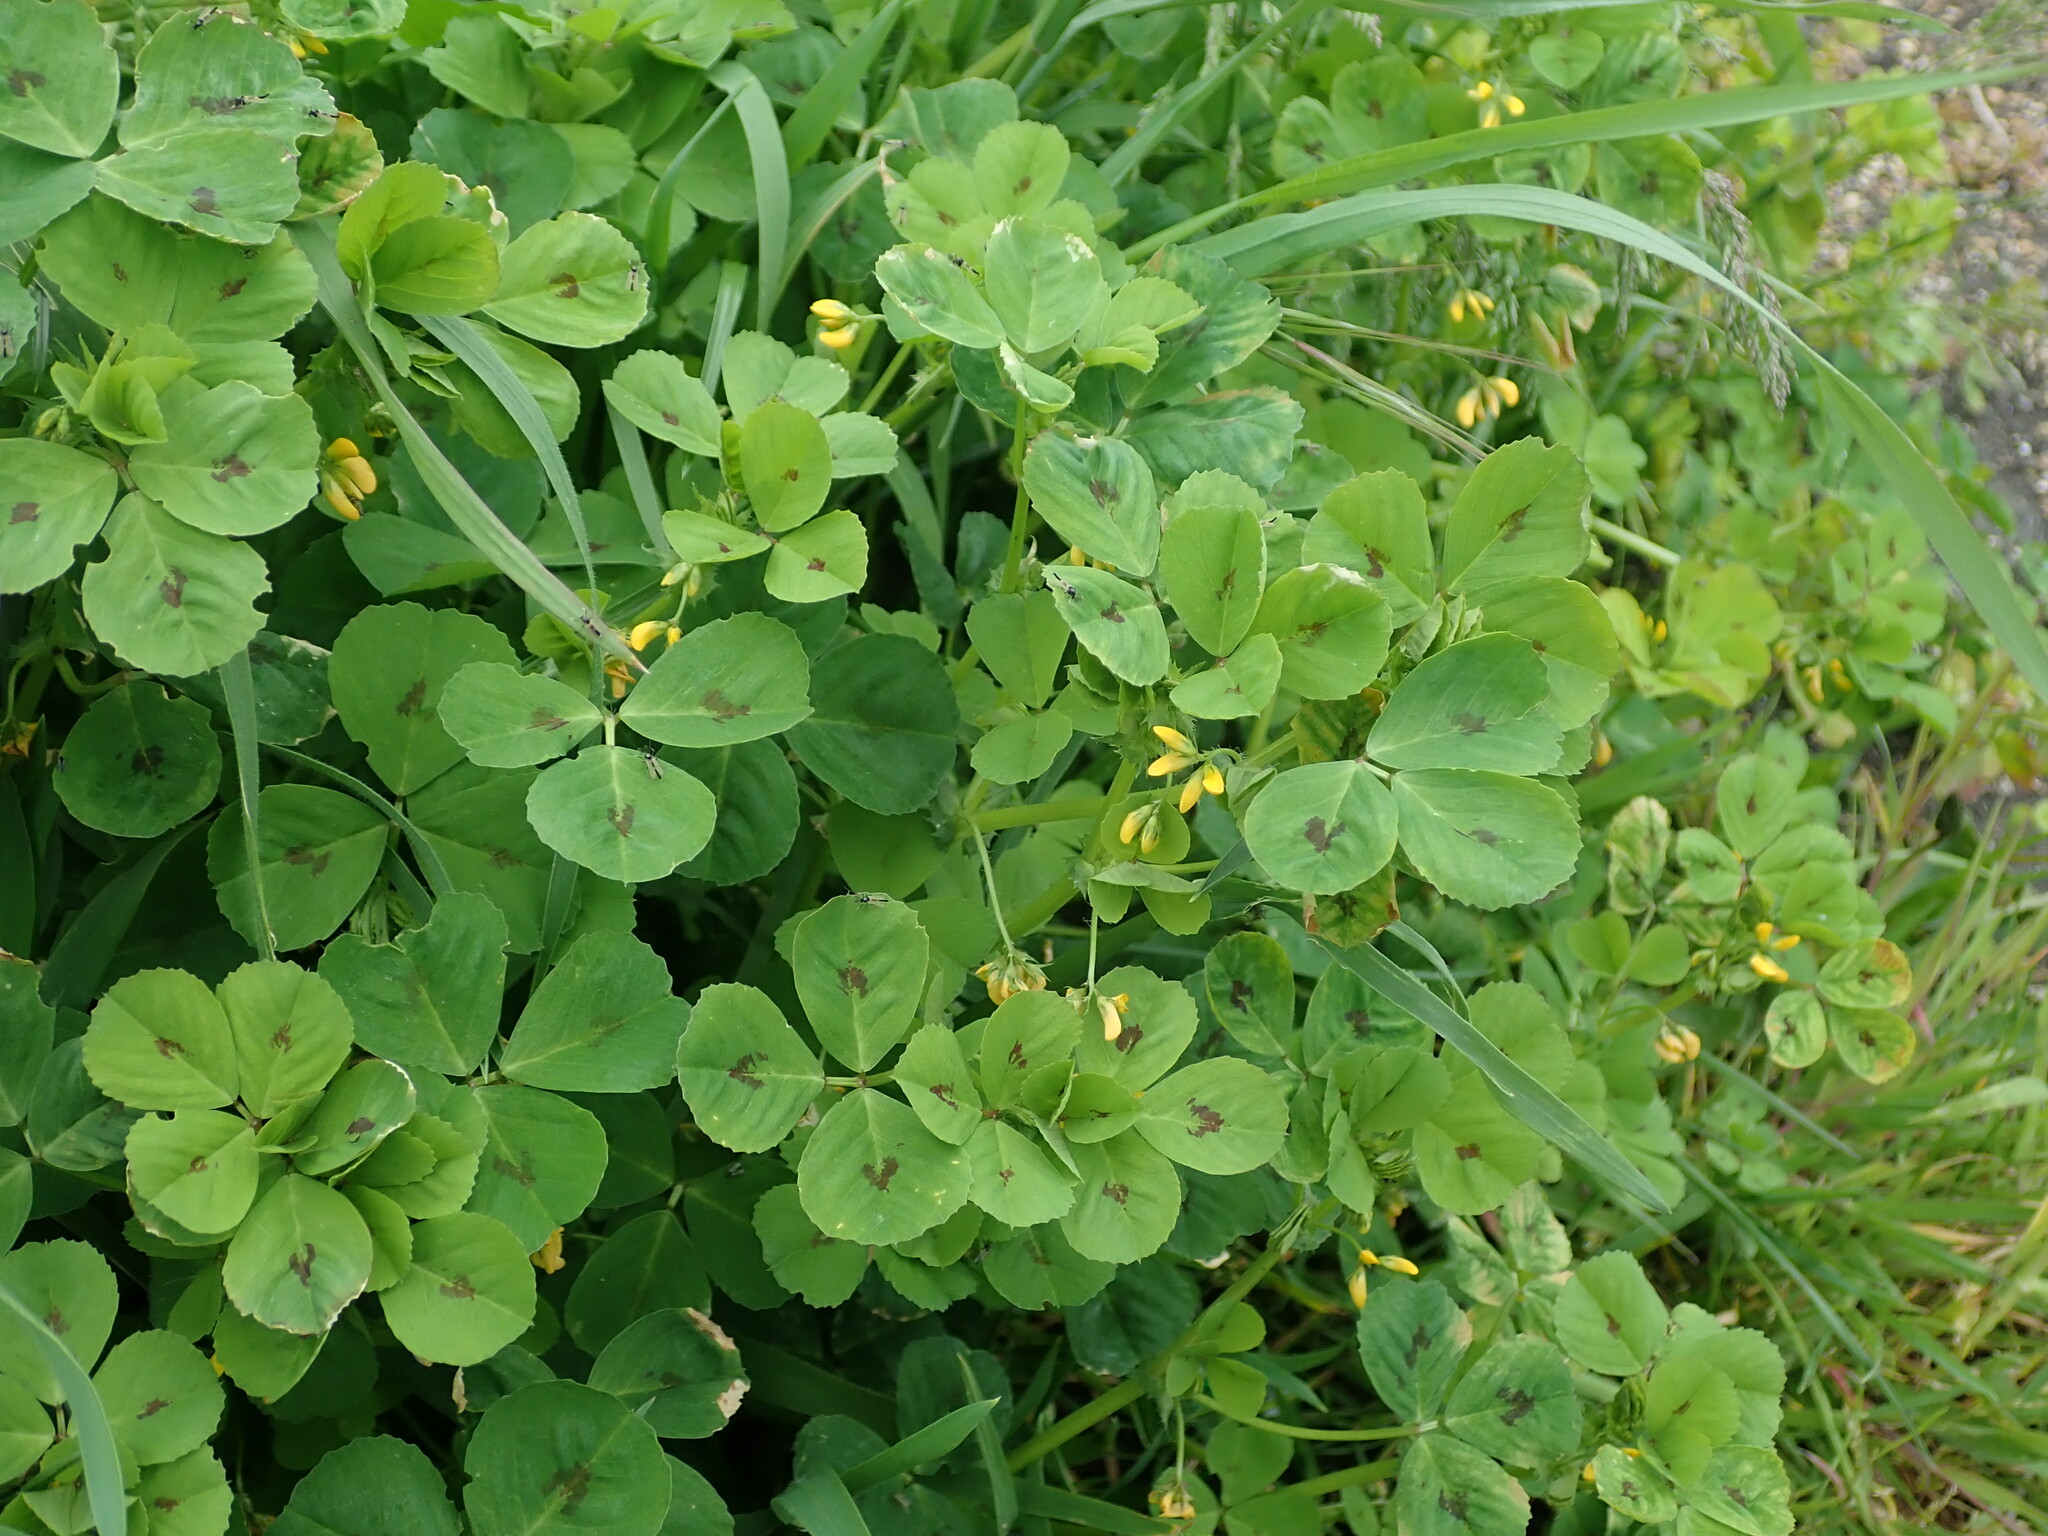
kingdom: Plantae
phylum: Tracheophyta
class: Magnoliopsida
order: Fabales
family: Fabaceae
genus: Medicago
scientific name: Medicago arabica
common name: Spotted medick
